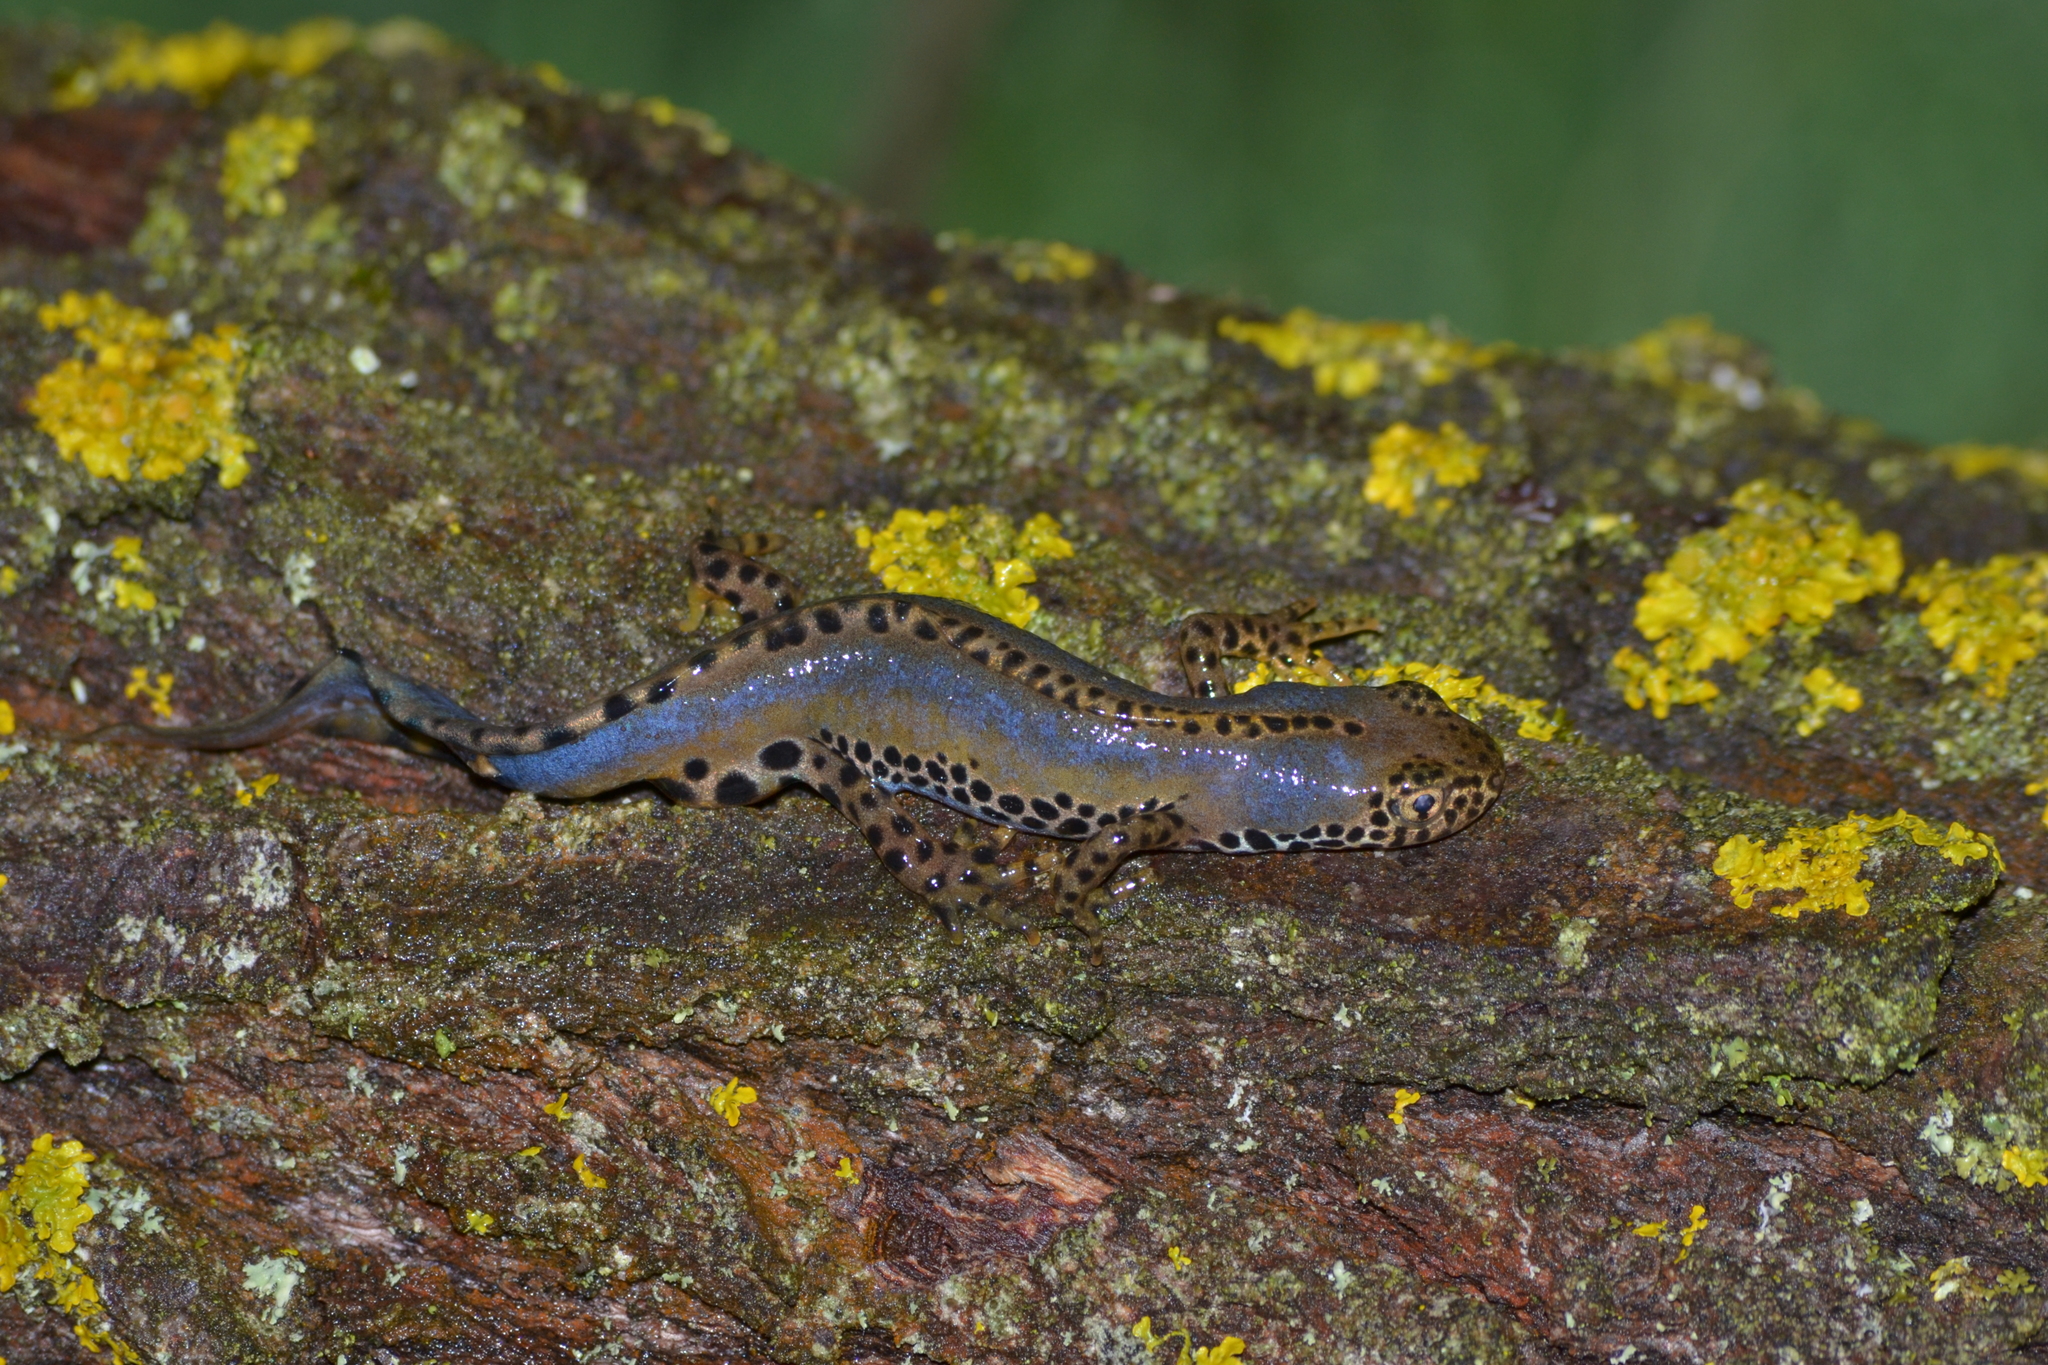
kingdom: Animalia
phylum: Chordata
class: Amphibia
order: Caudata
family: Salamandridae
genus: Ichthyosaura
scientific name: Ichthyosaura alpestris
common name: Alpine newt
